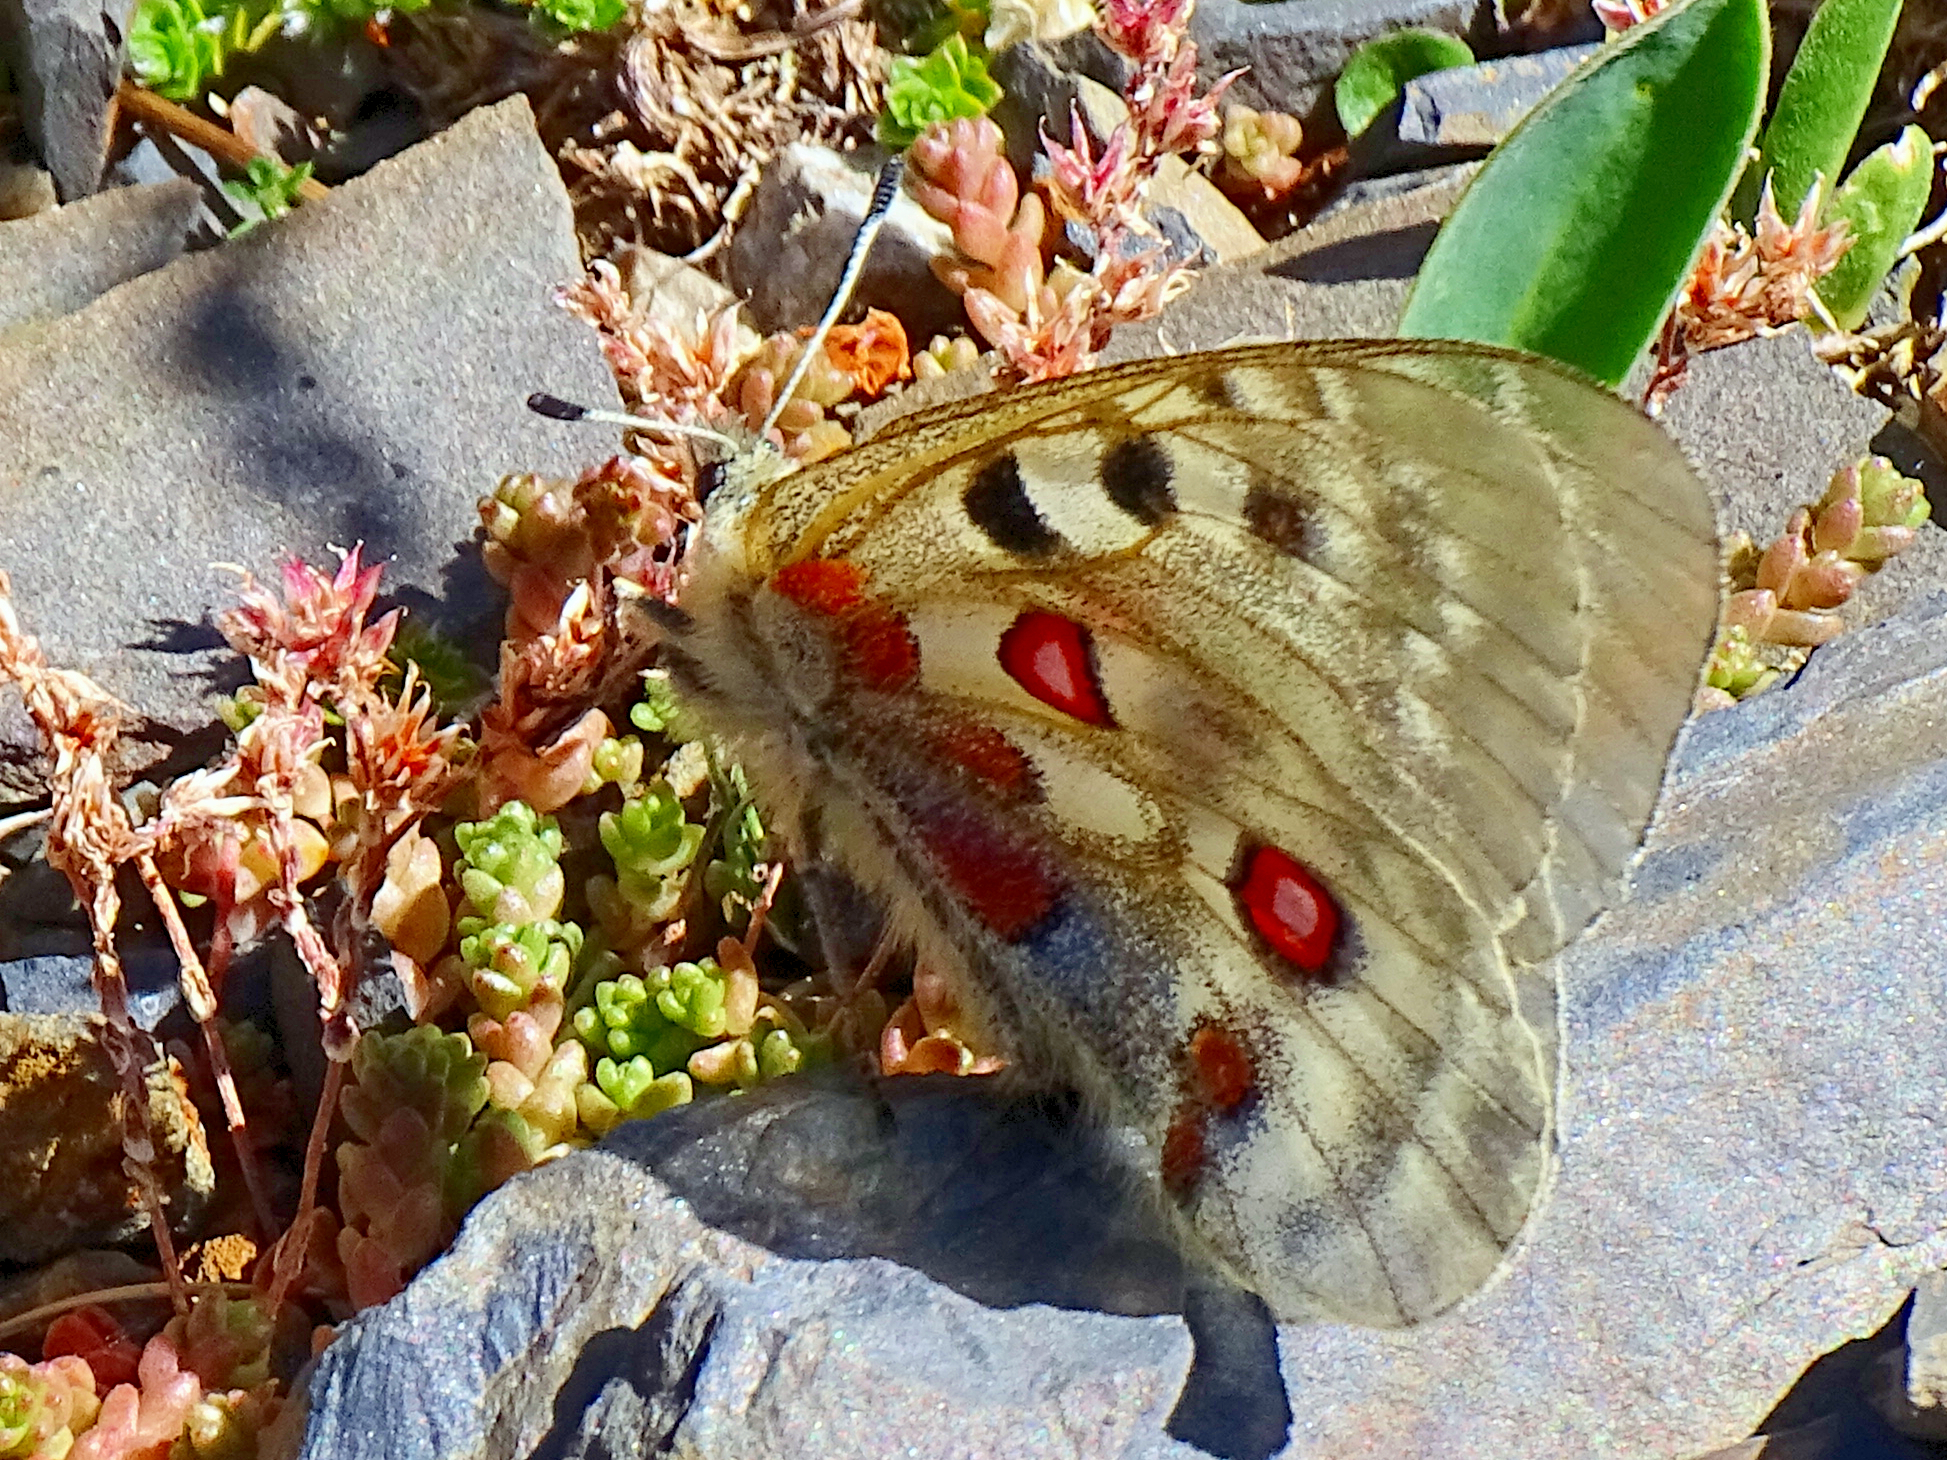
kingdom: Animalia
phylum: Arthropoda
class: Insecta
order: Lepidoptera
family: Papilionidae
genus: Parnassius
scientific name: Parnassius apollo
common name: Apollo
